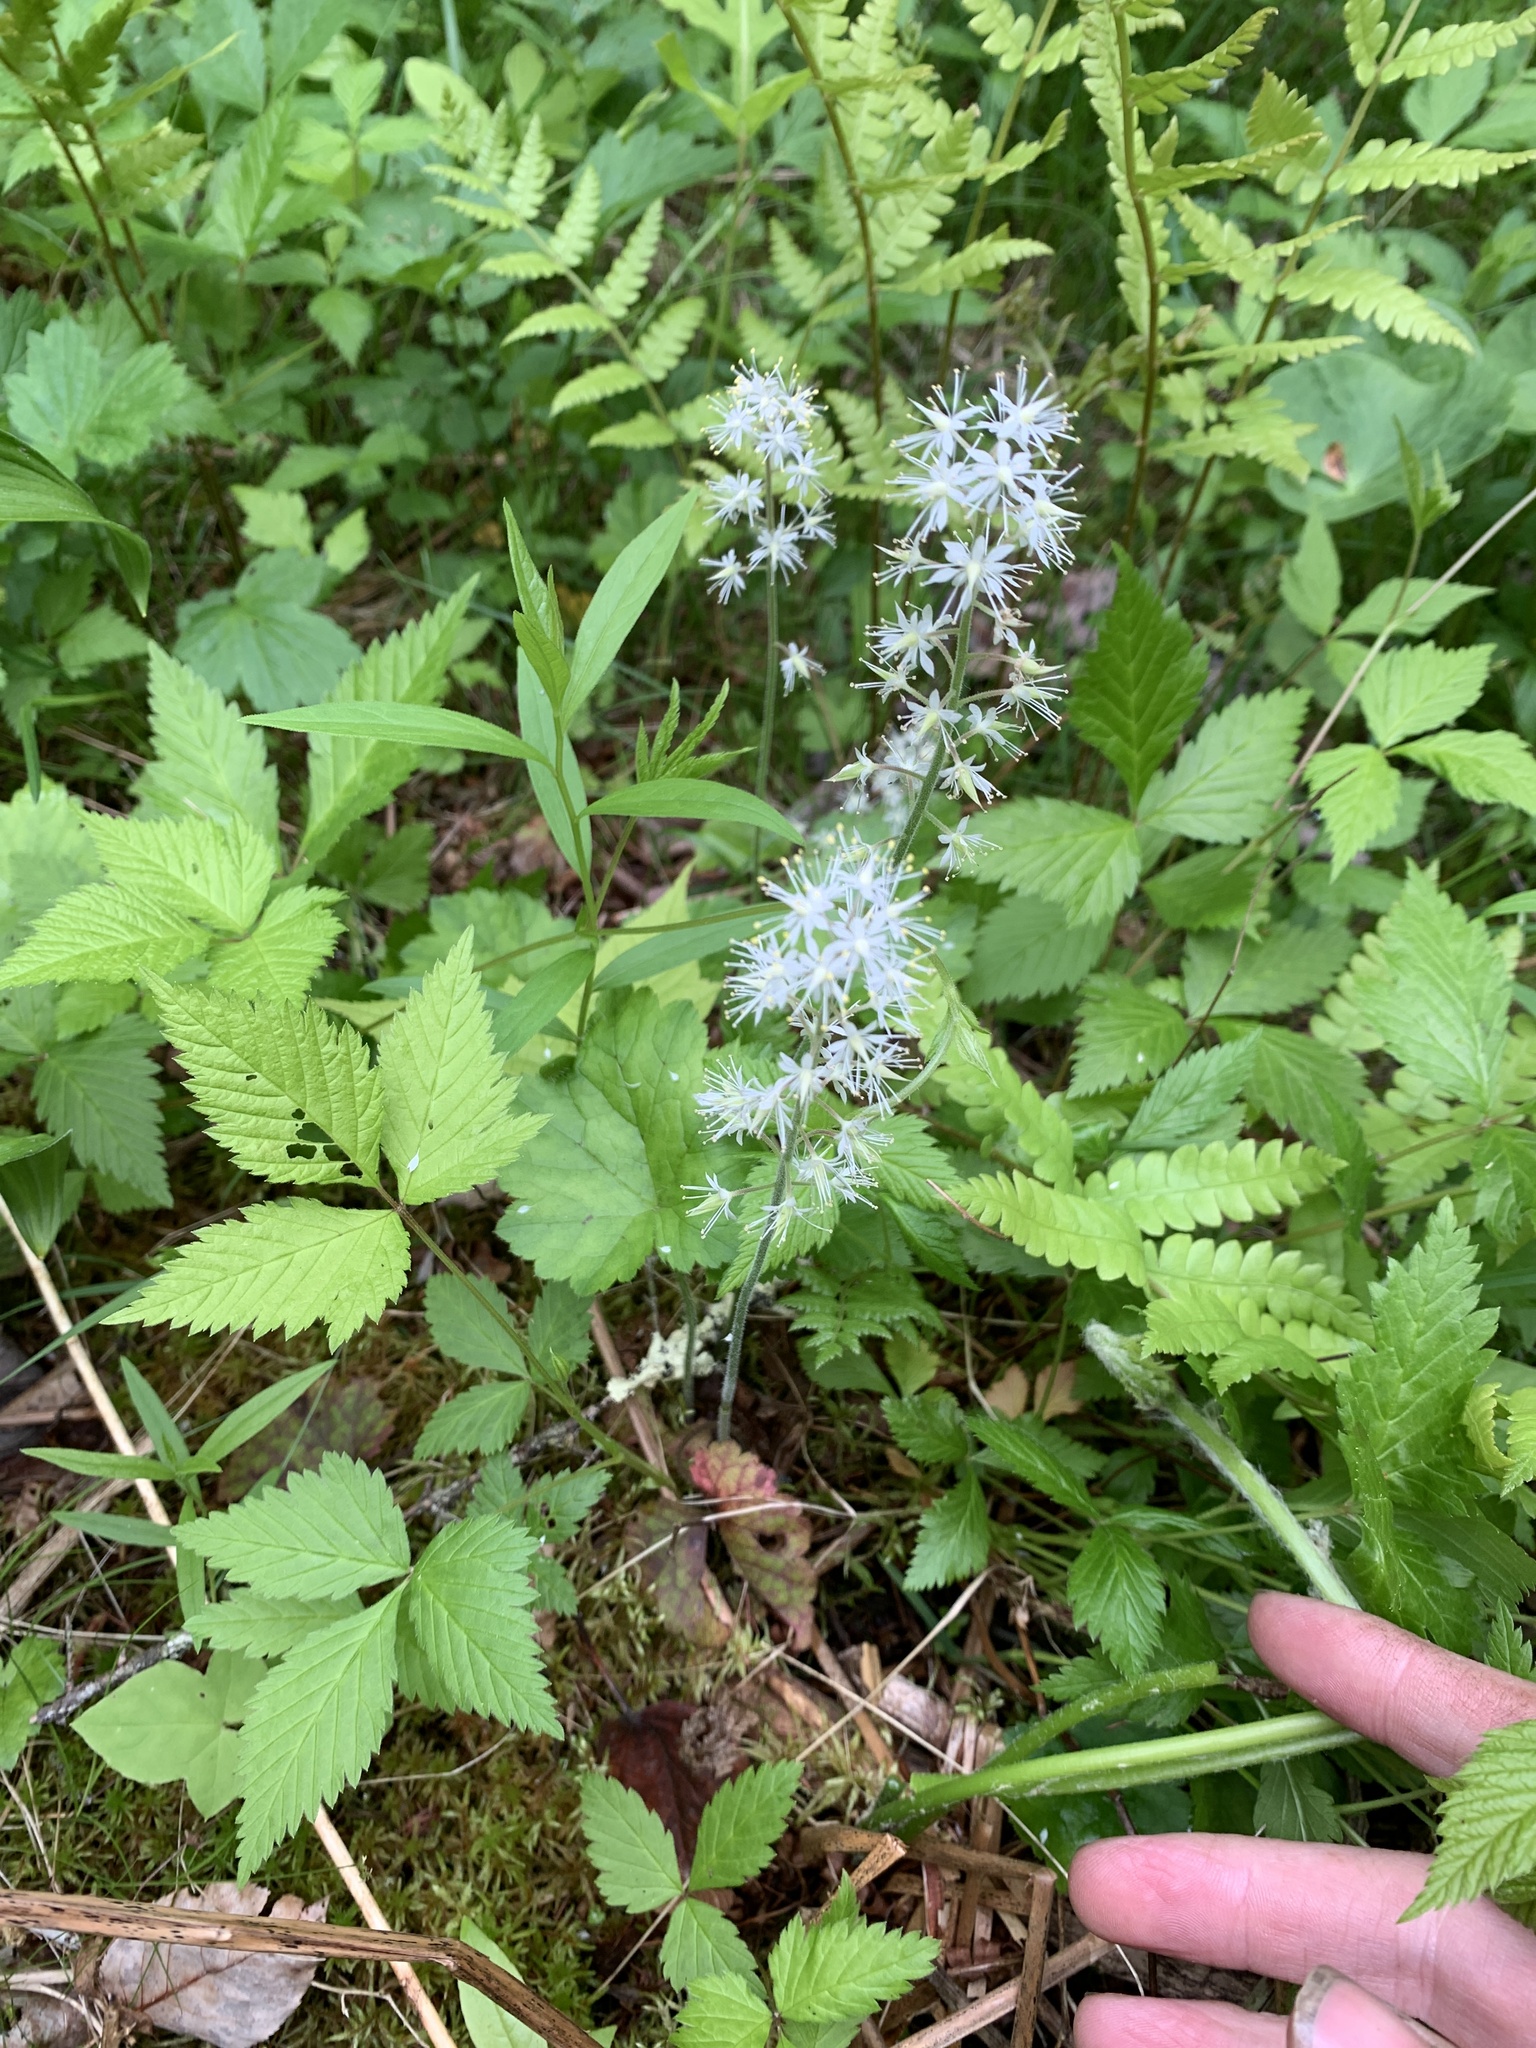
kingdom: Plantae
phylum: Tracheophyta
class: Magnoliopsida
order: Saxifragales
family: Saxifragaceae
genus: Tiarella
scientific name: Tiarella stolonifera
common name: Stoloniferous foamflower
